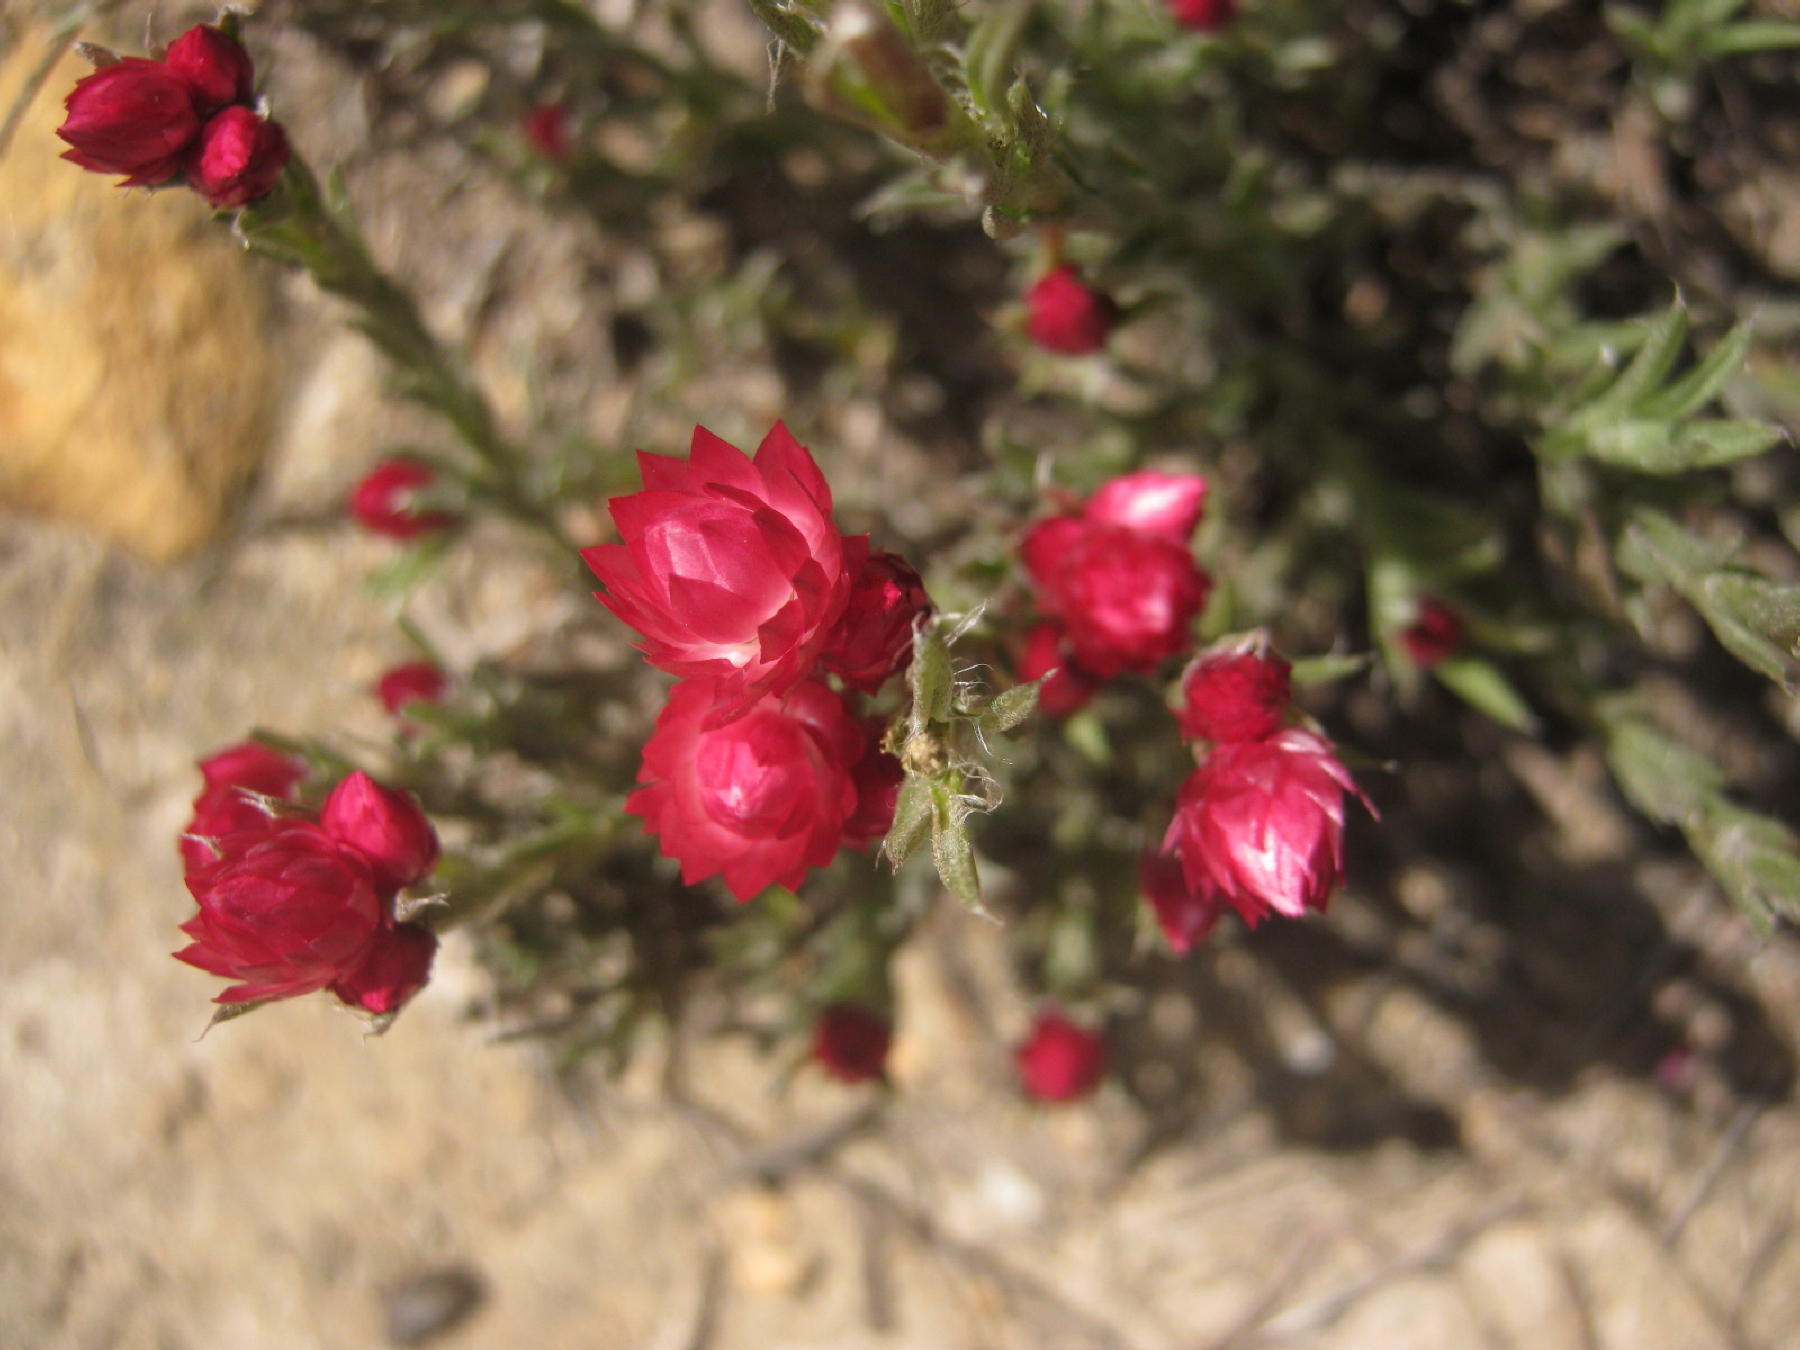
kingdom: Plantae
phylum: Tracheophyta
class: Magnoliopsida
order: Asterales
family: Asteraceae
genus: Achyranthemum
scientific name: Achyranthemum paniculatum
